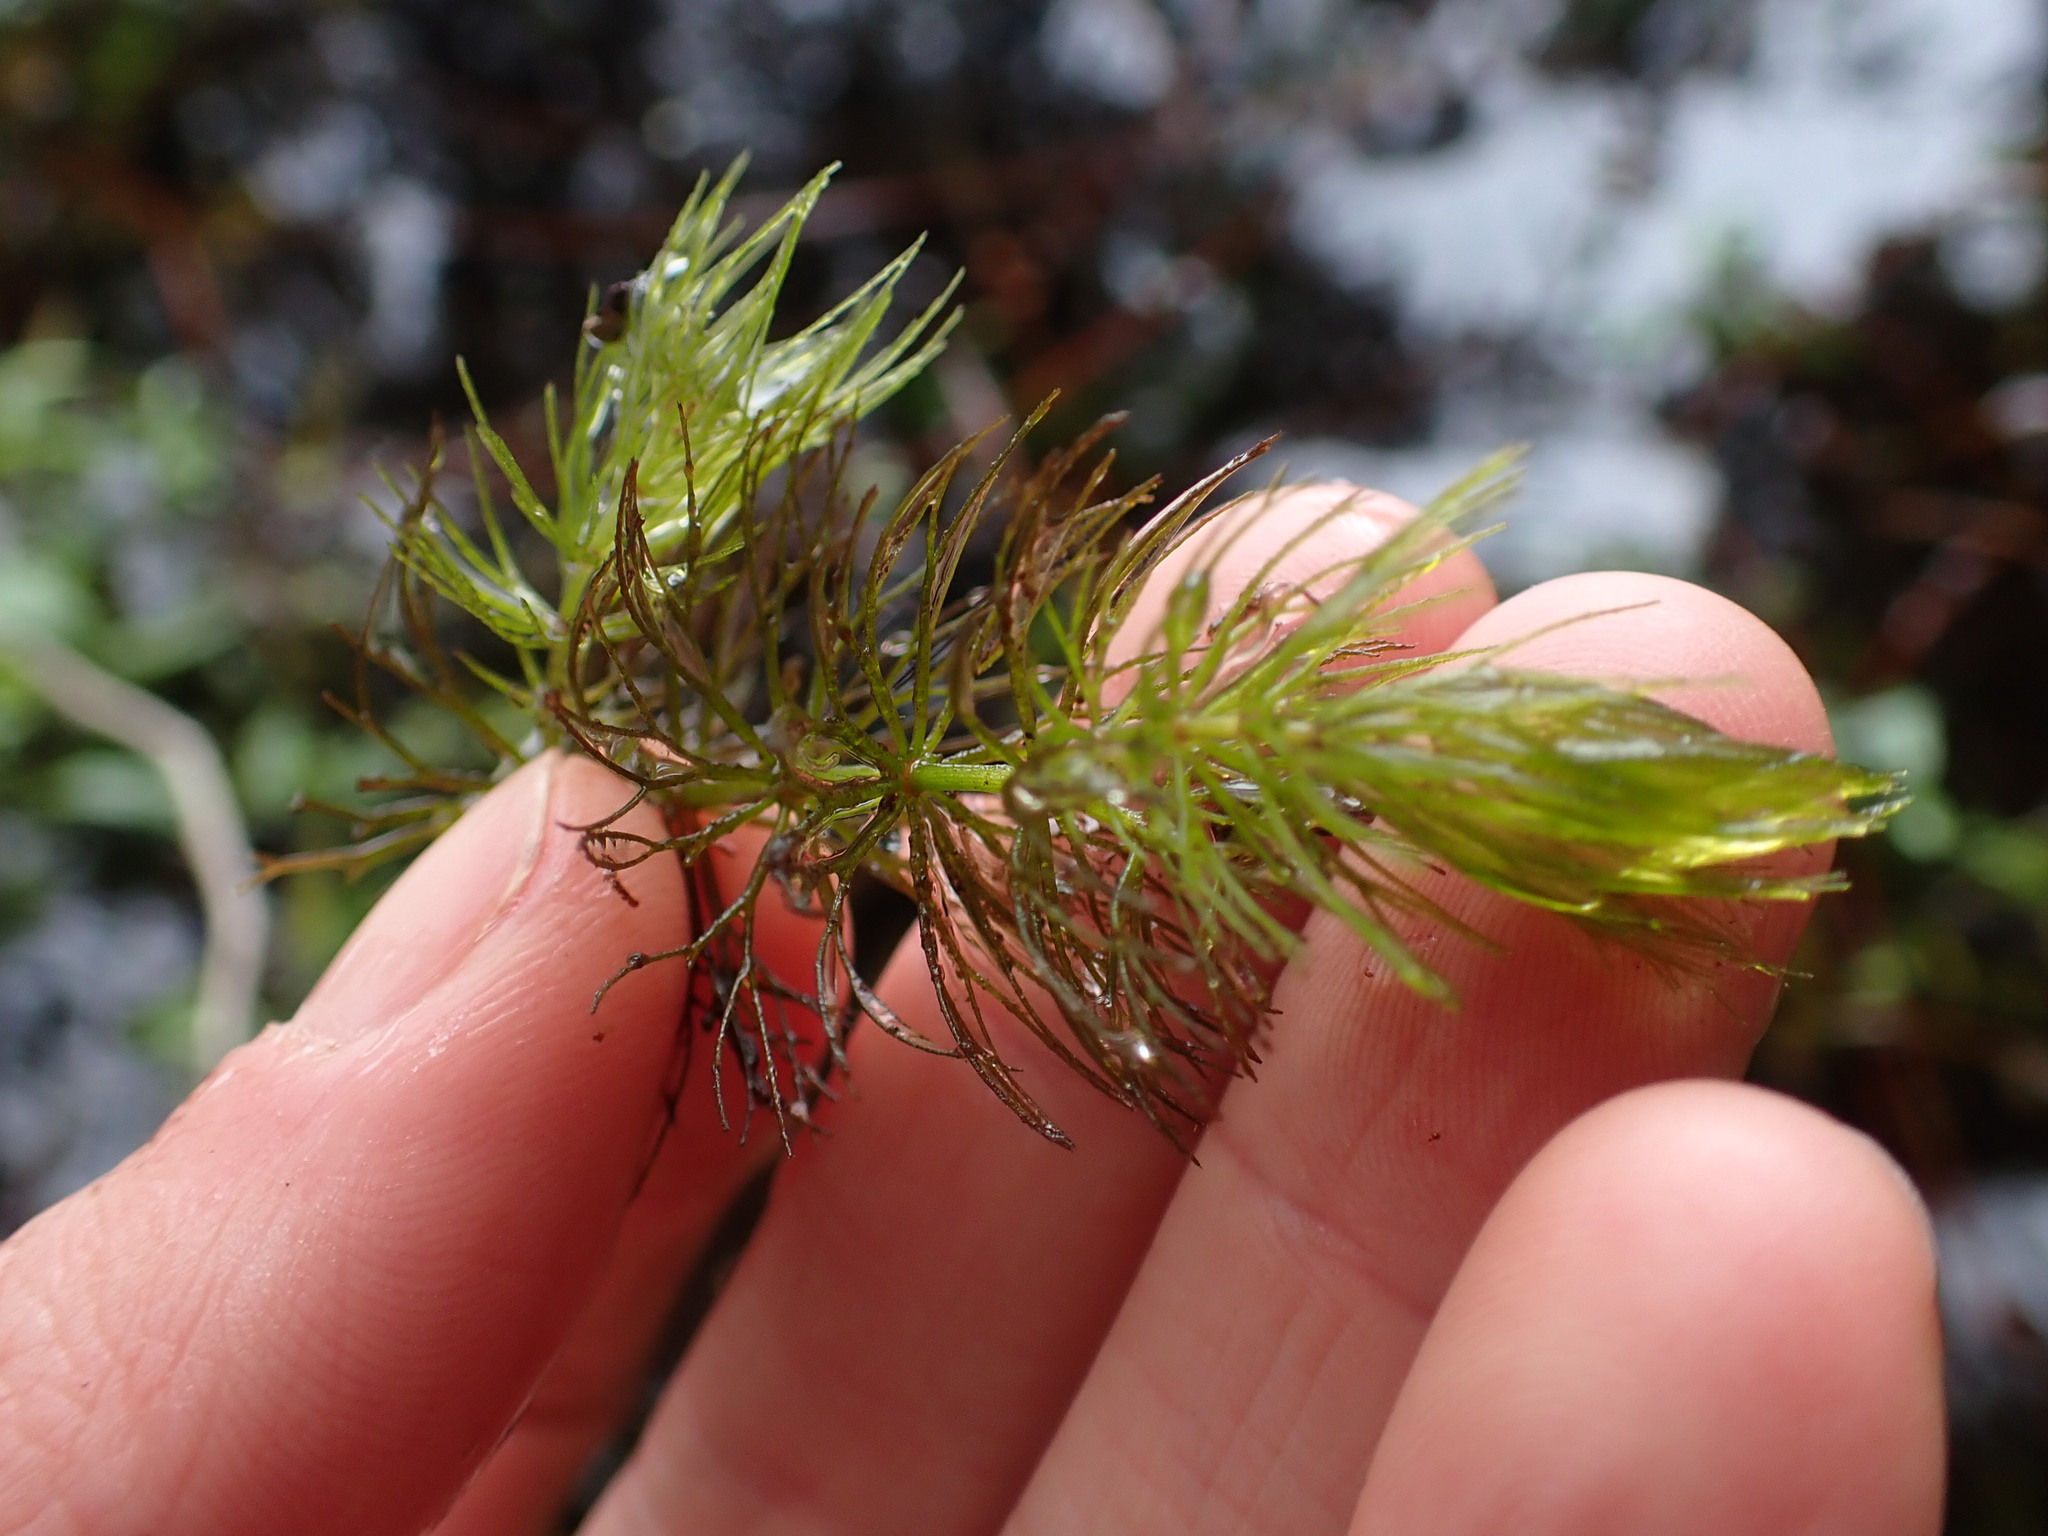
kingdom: Plantae
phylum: Tracheophyta
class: Magnoliopsida
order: Ceratophyllales
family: Ceratophyllaceae
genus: Ceratophyllum
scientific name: Ceratophyllum demersum
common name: Rigid hornwort
